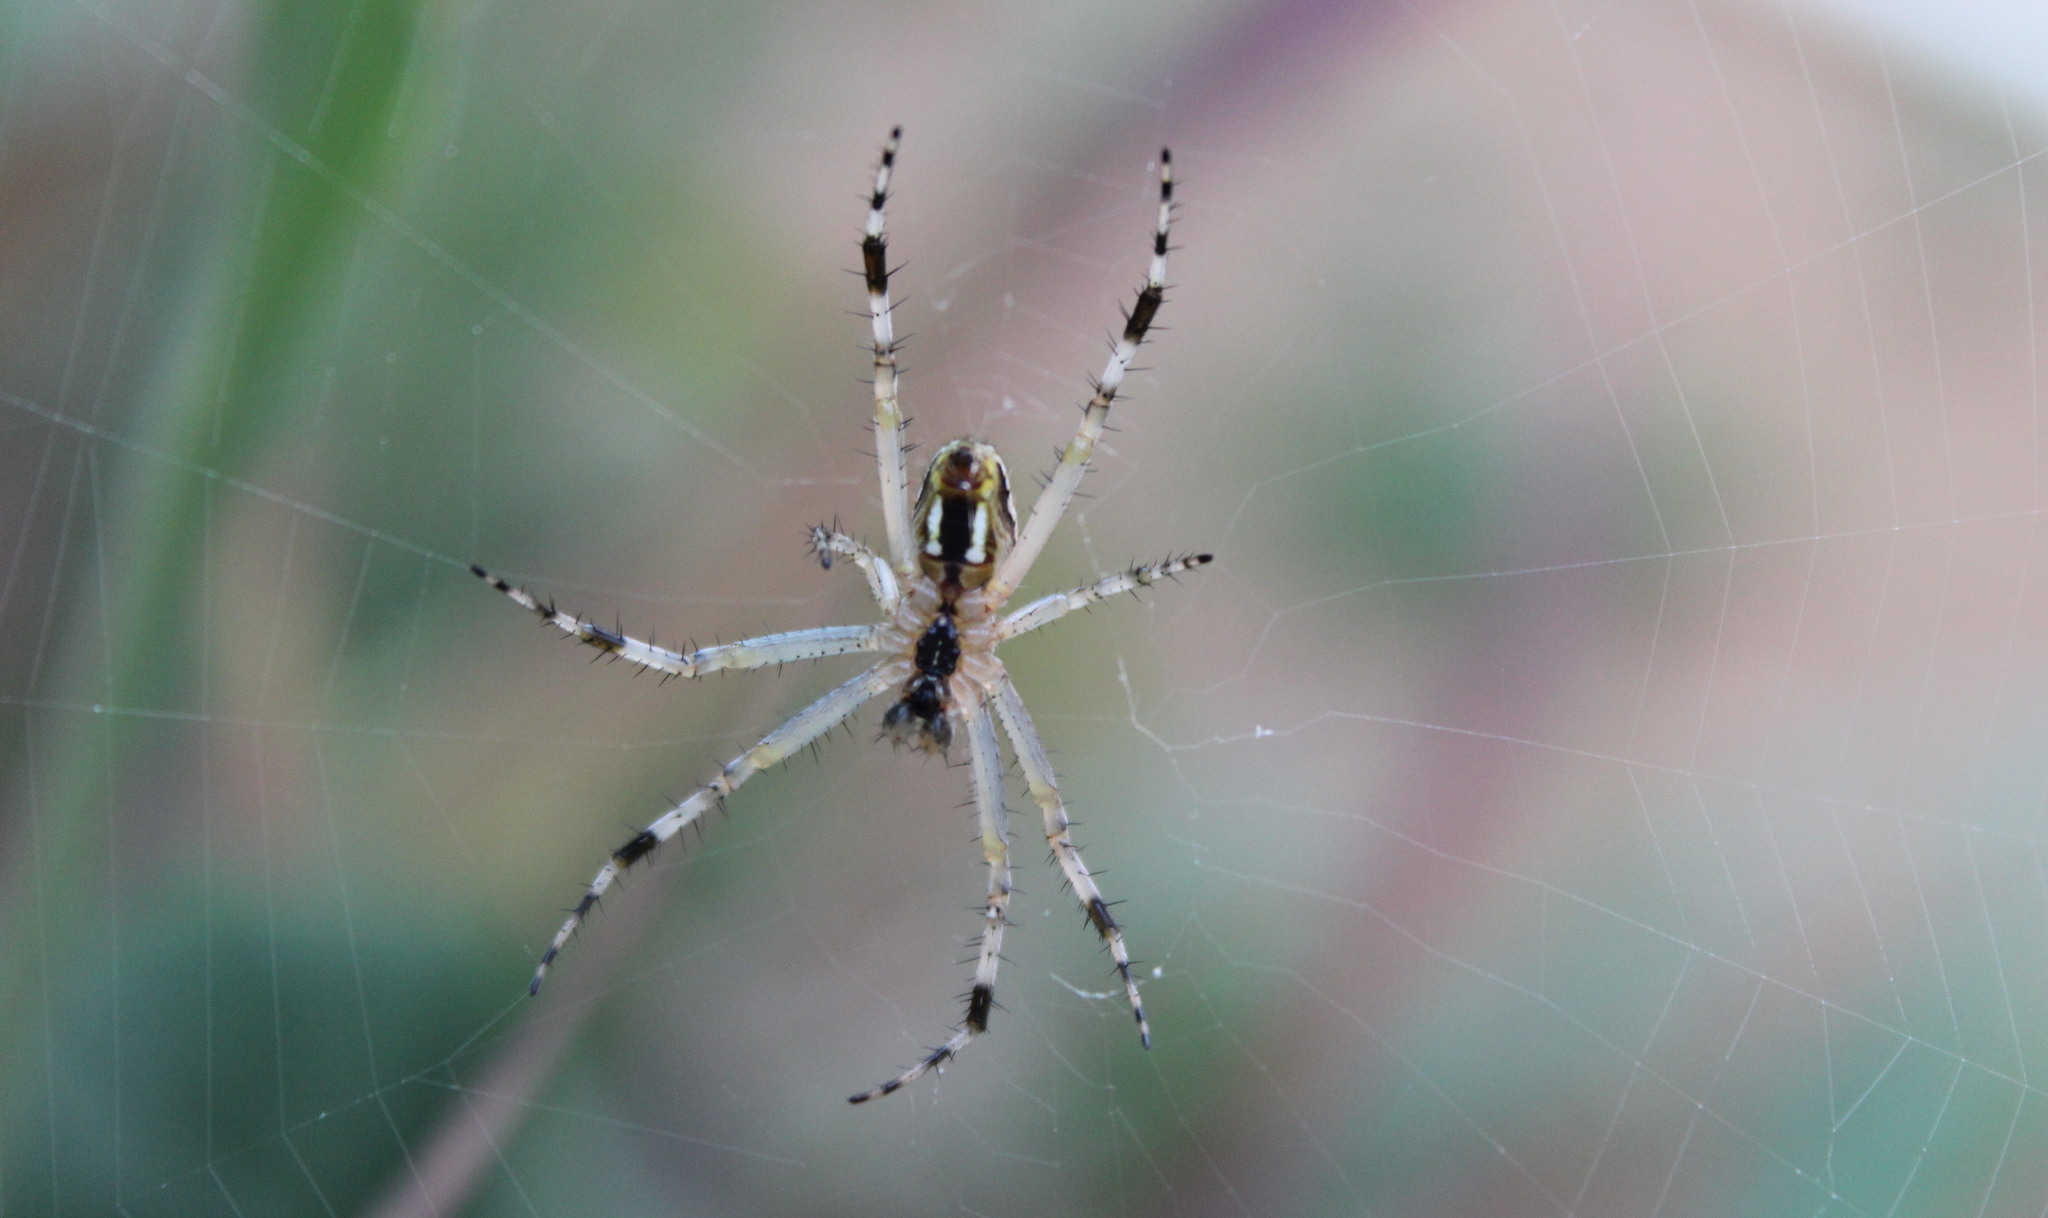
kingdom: Animalia
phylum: Arthropoda
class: Arachnida
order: Araneae
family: Araneidae
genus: Neoscona
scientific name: Neoscona oaxacensis
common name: Orb weavers
